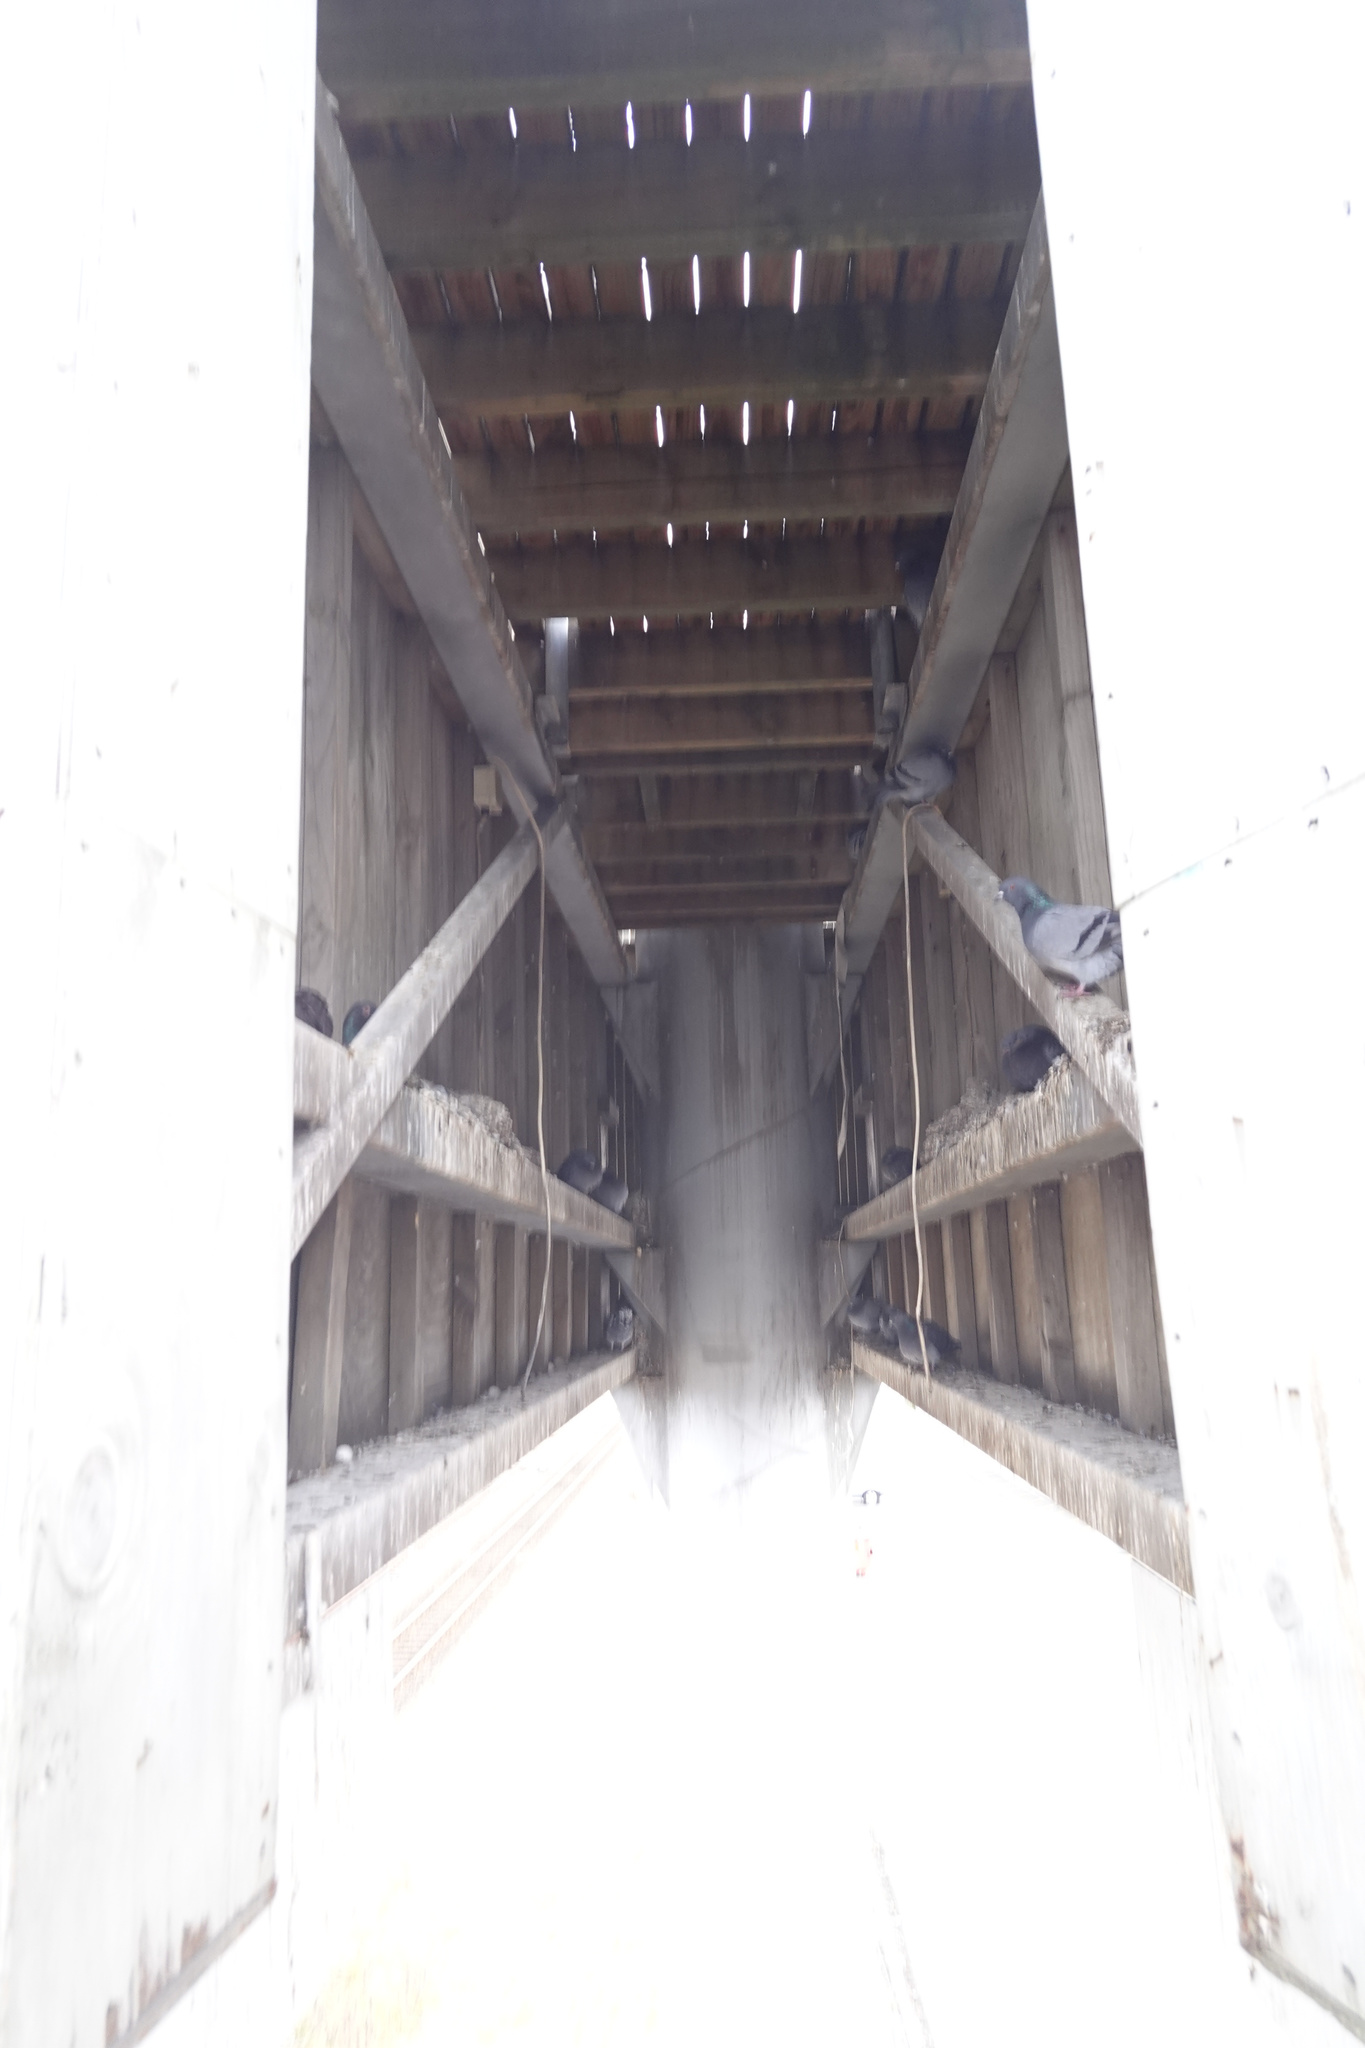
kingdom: Animalia
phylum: Chordata
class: Aves
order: Columbiformes
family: Columbidae
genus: Columba
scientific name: Columba livia
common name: Rock pigeon
